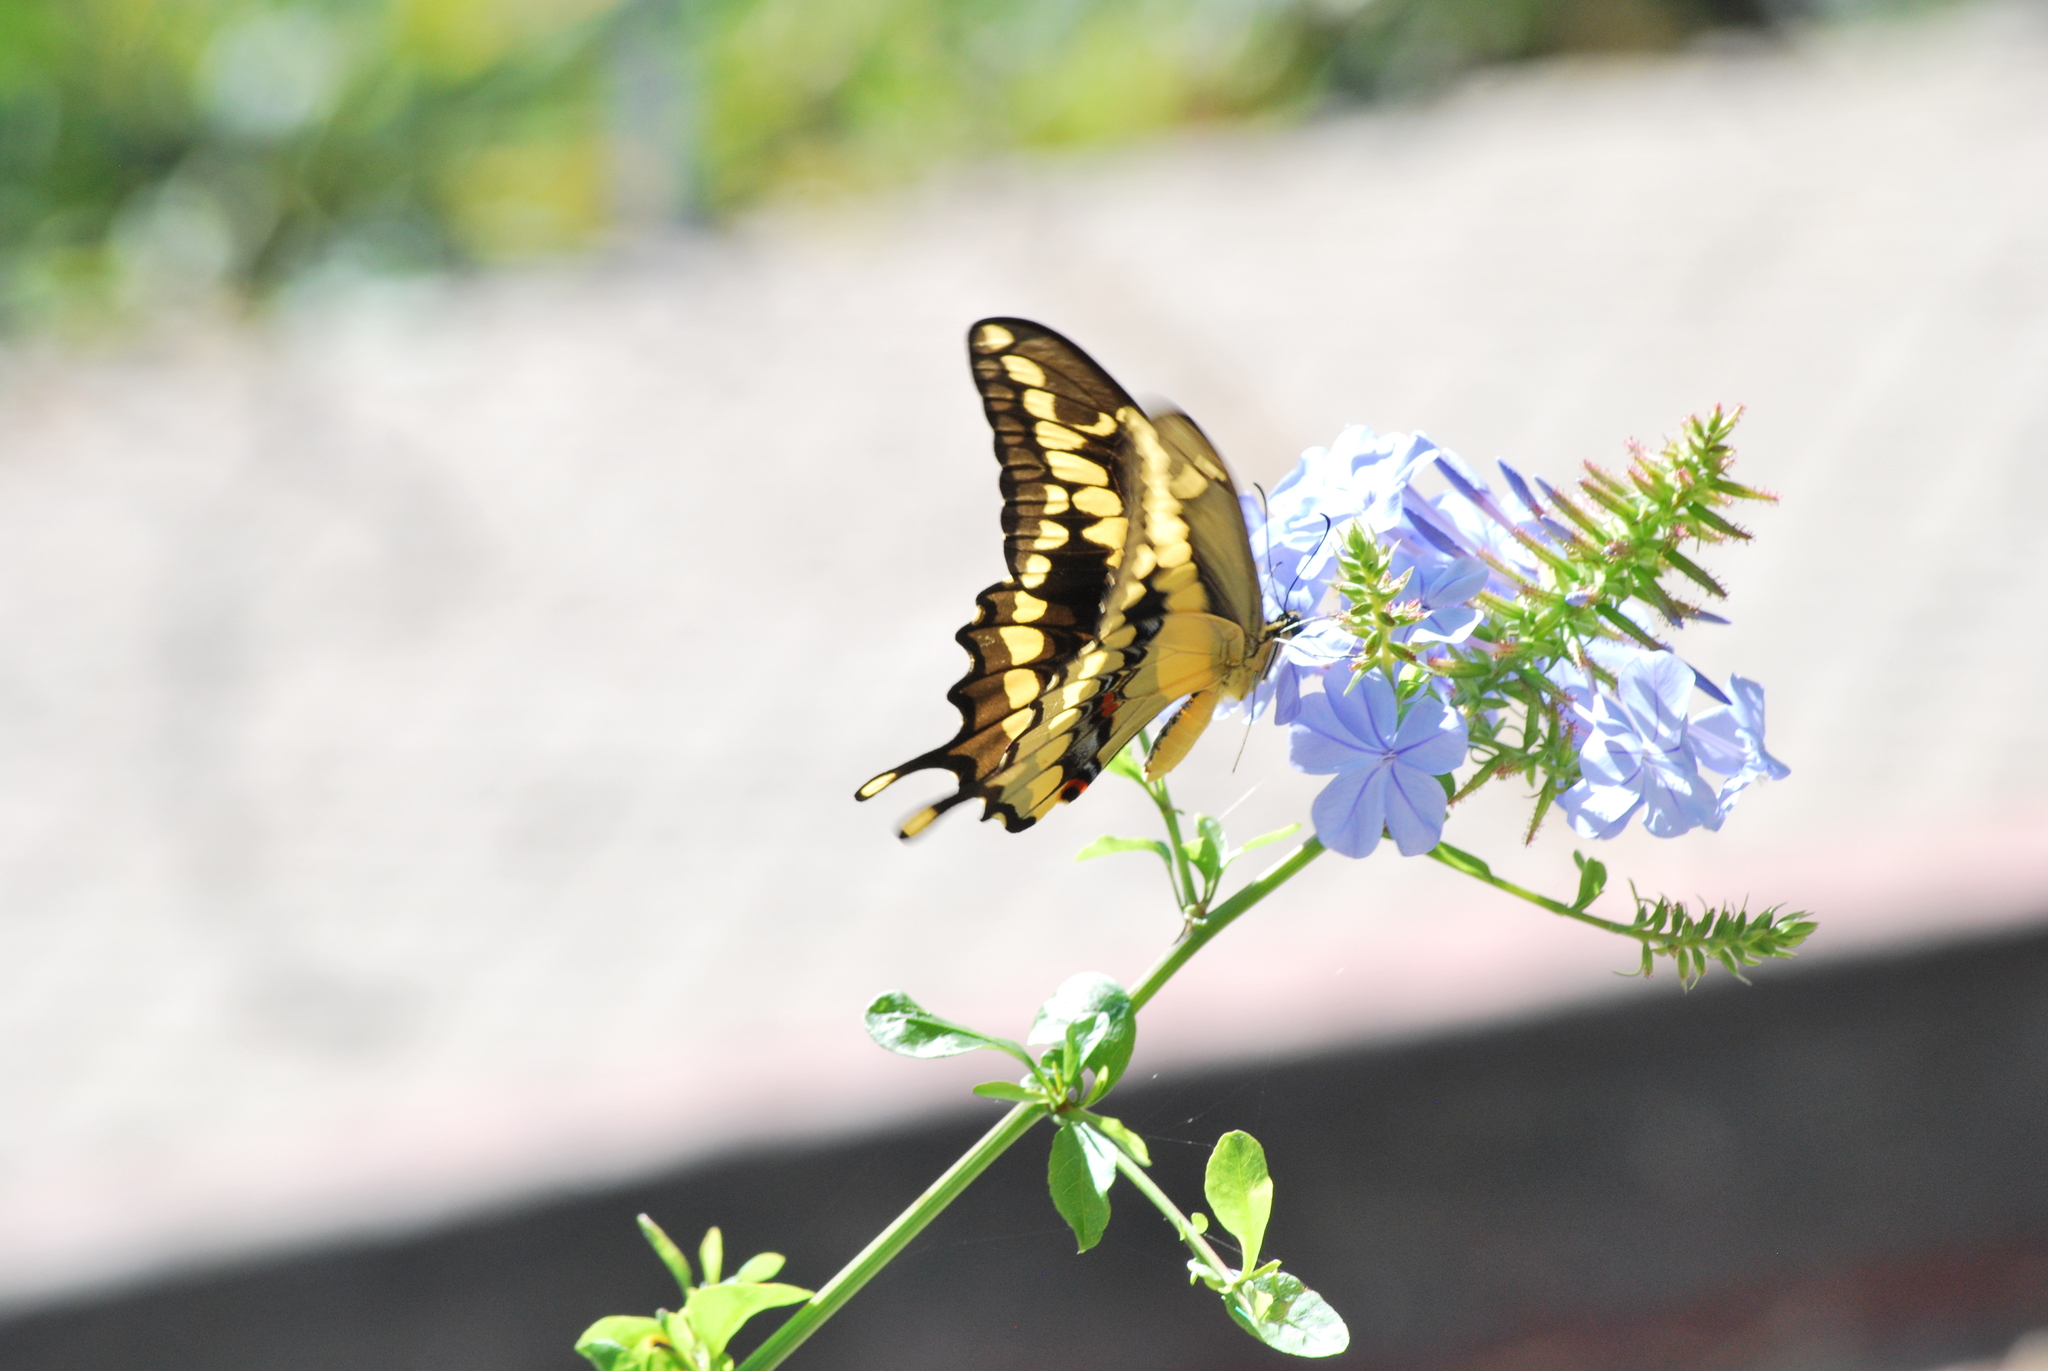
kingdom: Animalia
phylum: Arthropoda
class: Insecta
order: Lepidoptera
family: Papilionidae
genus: Papilio
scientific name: Papilio rumiko
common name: Western giant swallowtail
